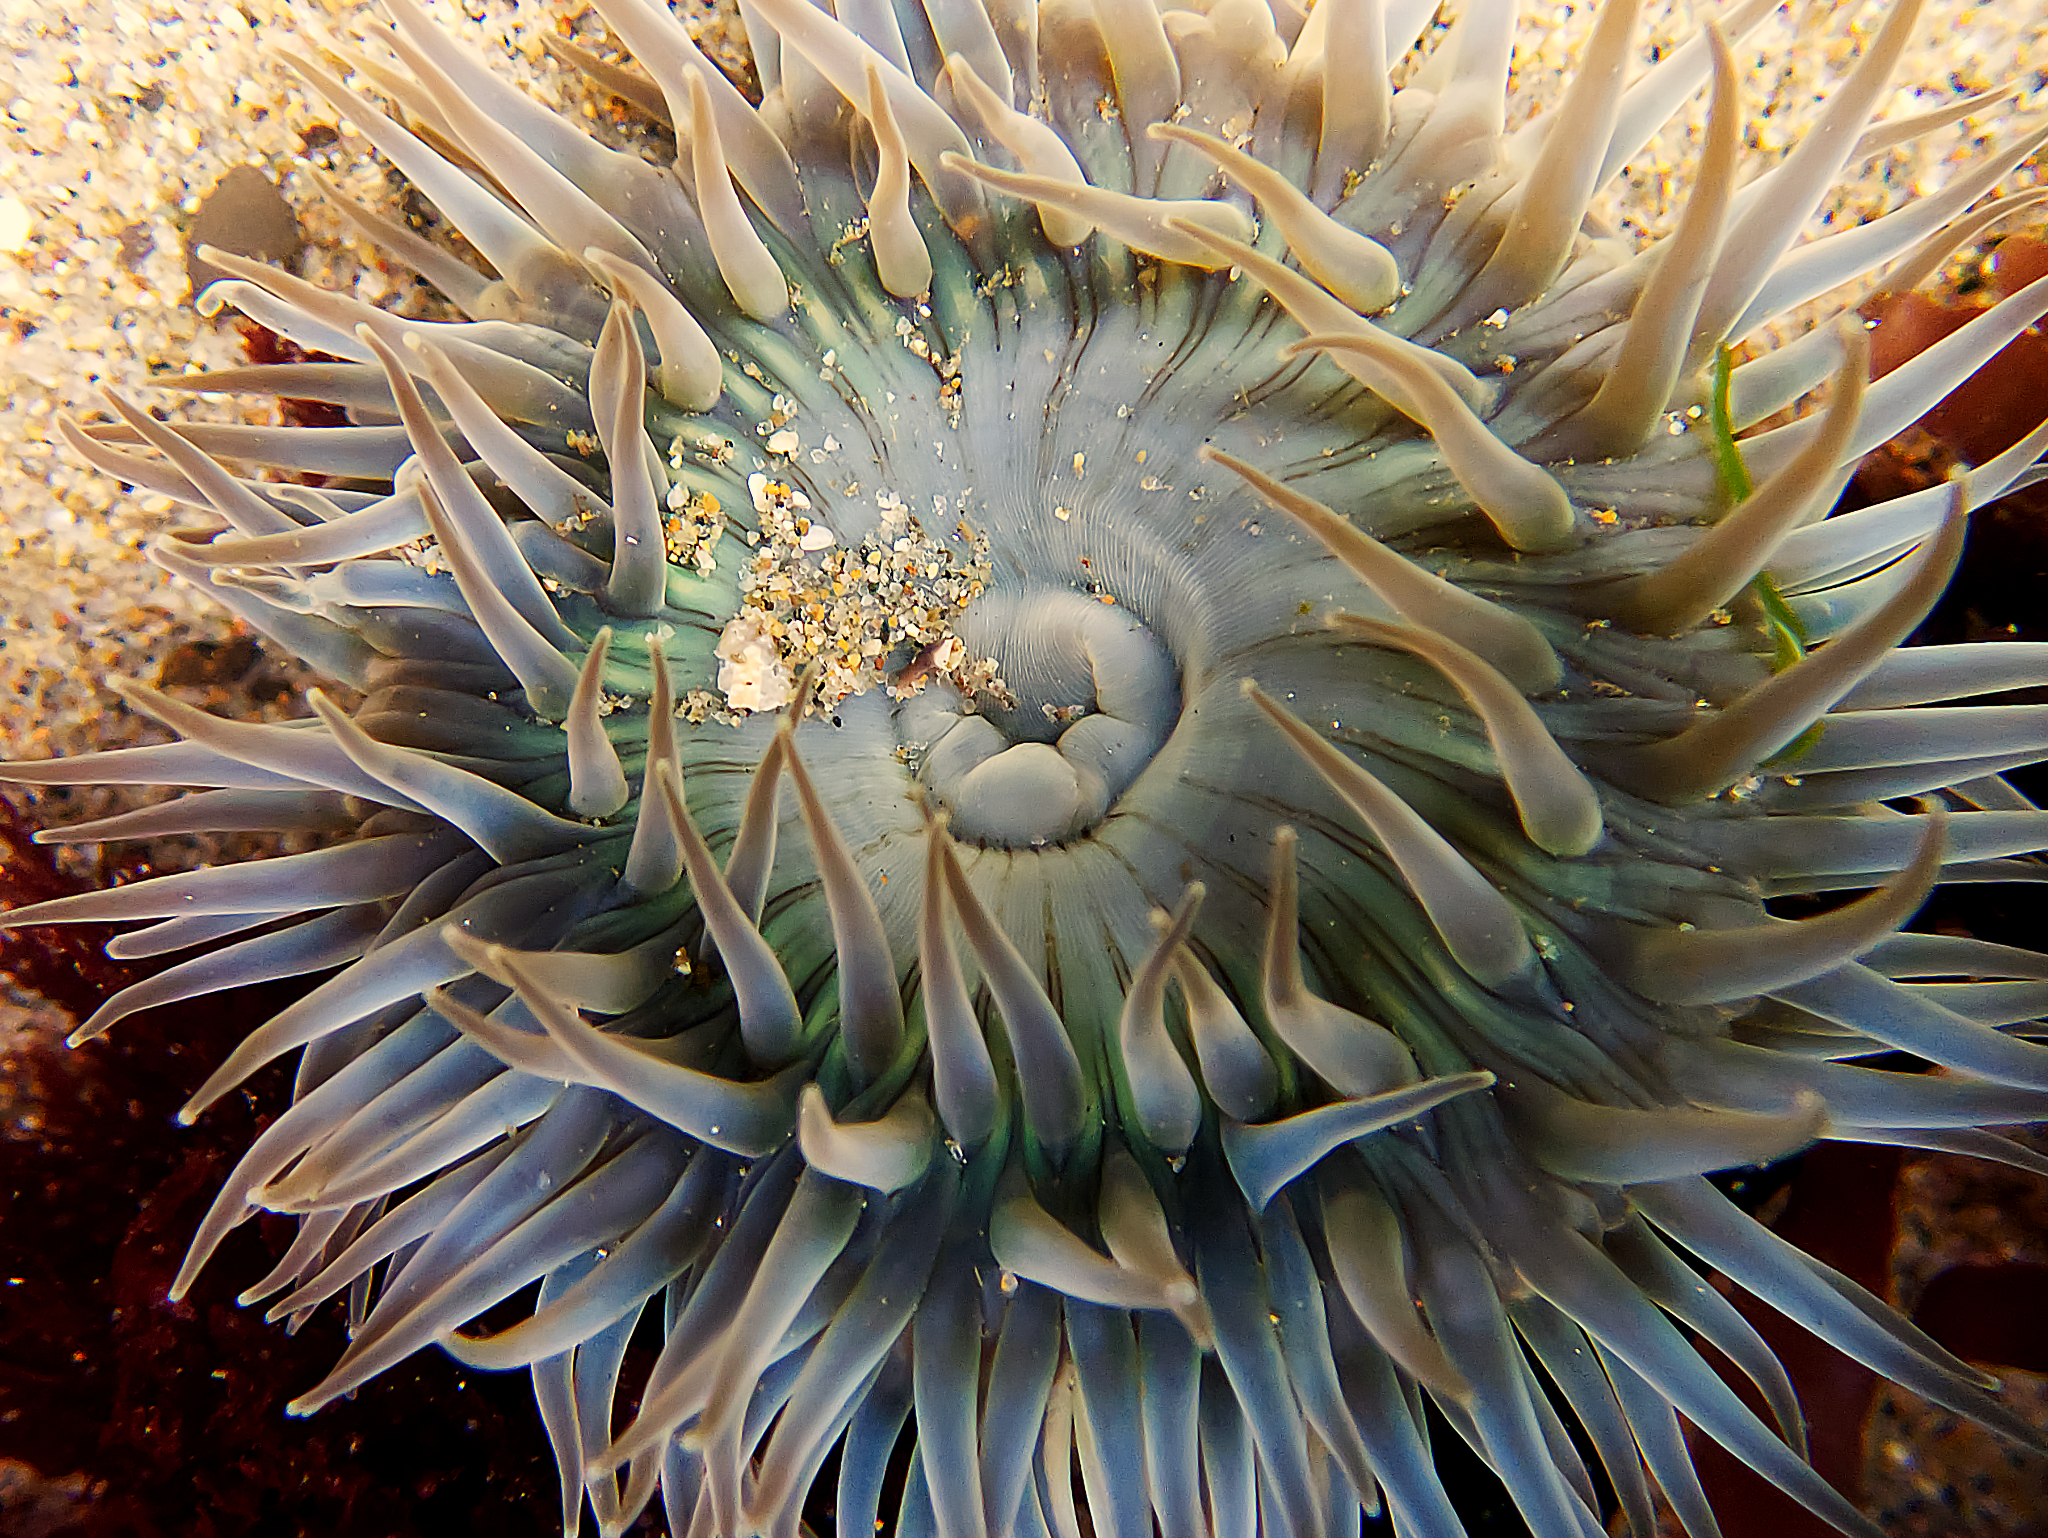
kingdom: Animalia
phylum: Cnidaria
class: Anthozoa
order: Actiniaria
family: Actiniidae
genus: Anthopleura
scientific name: Anthopleura sola
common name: Sun anemone
